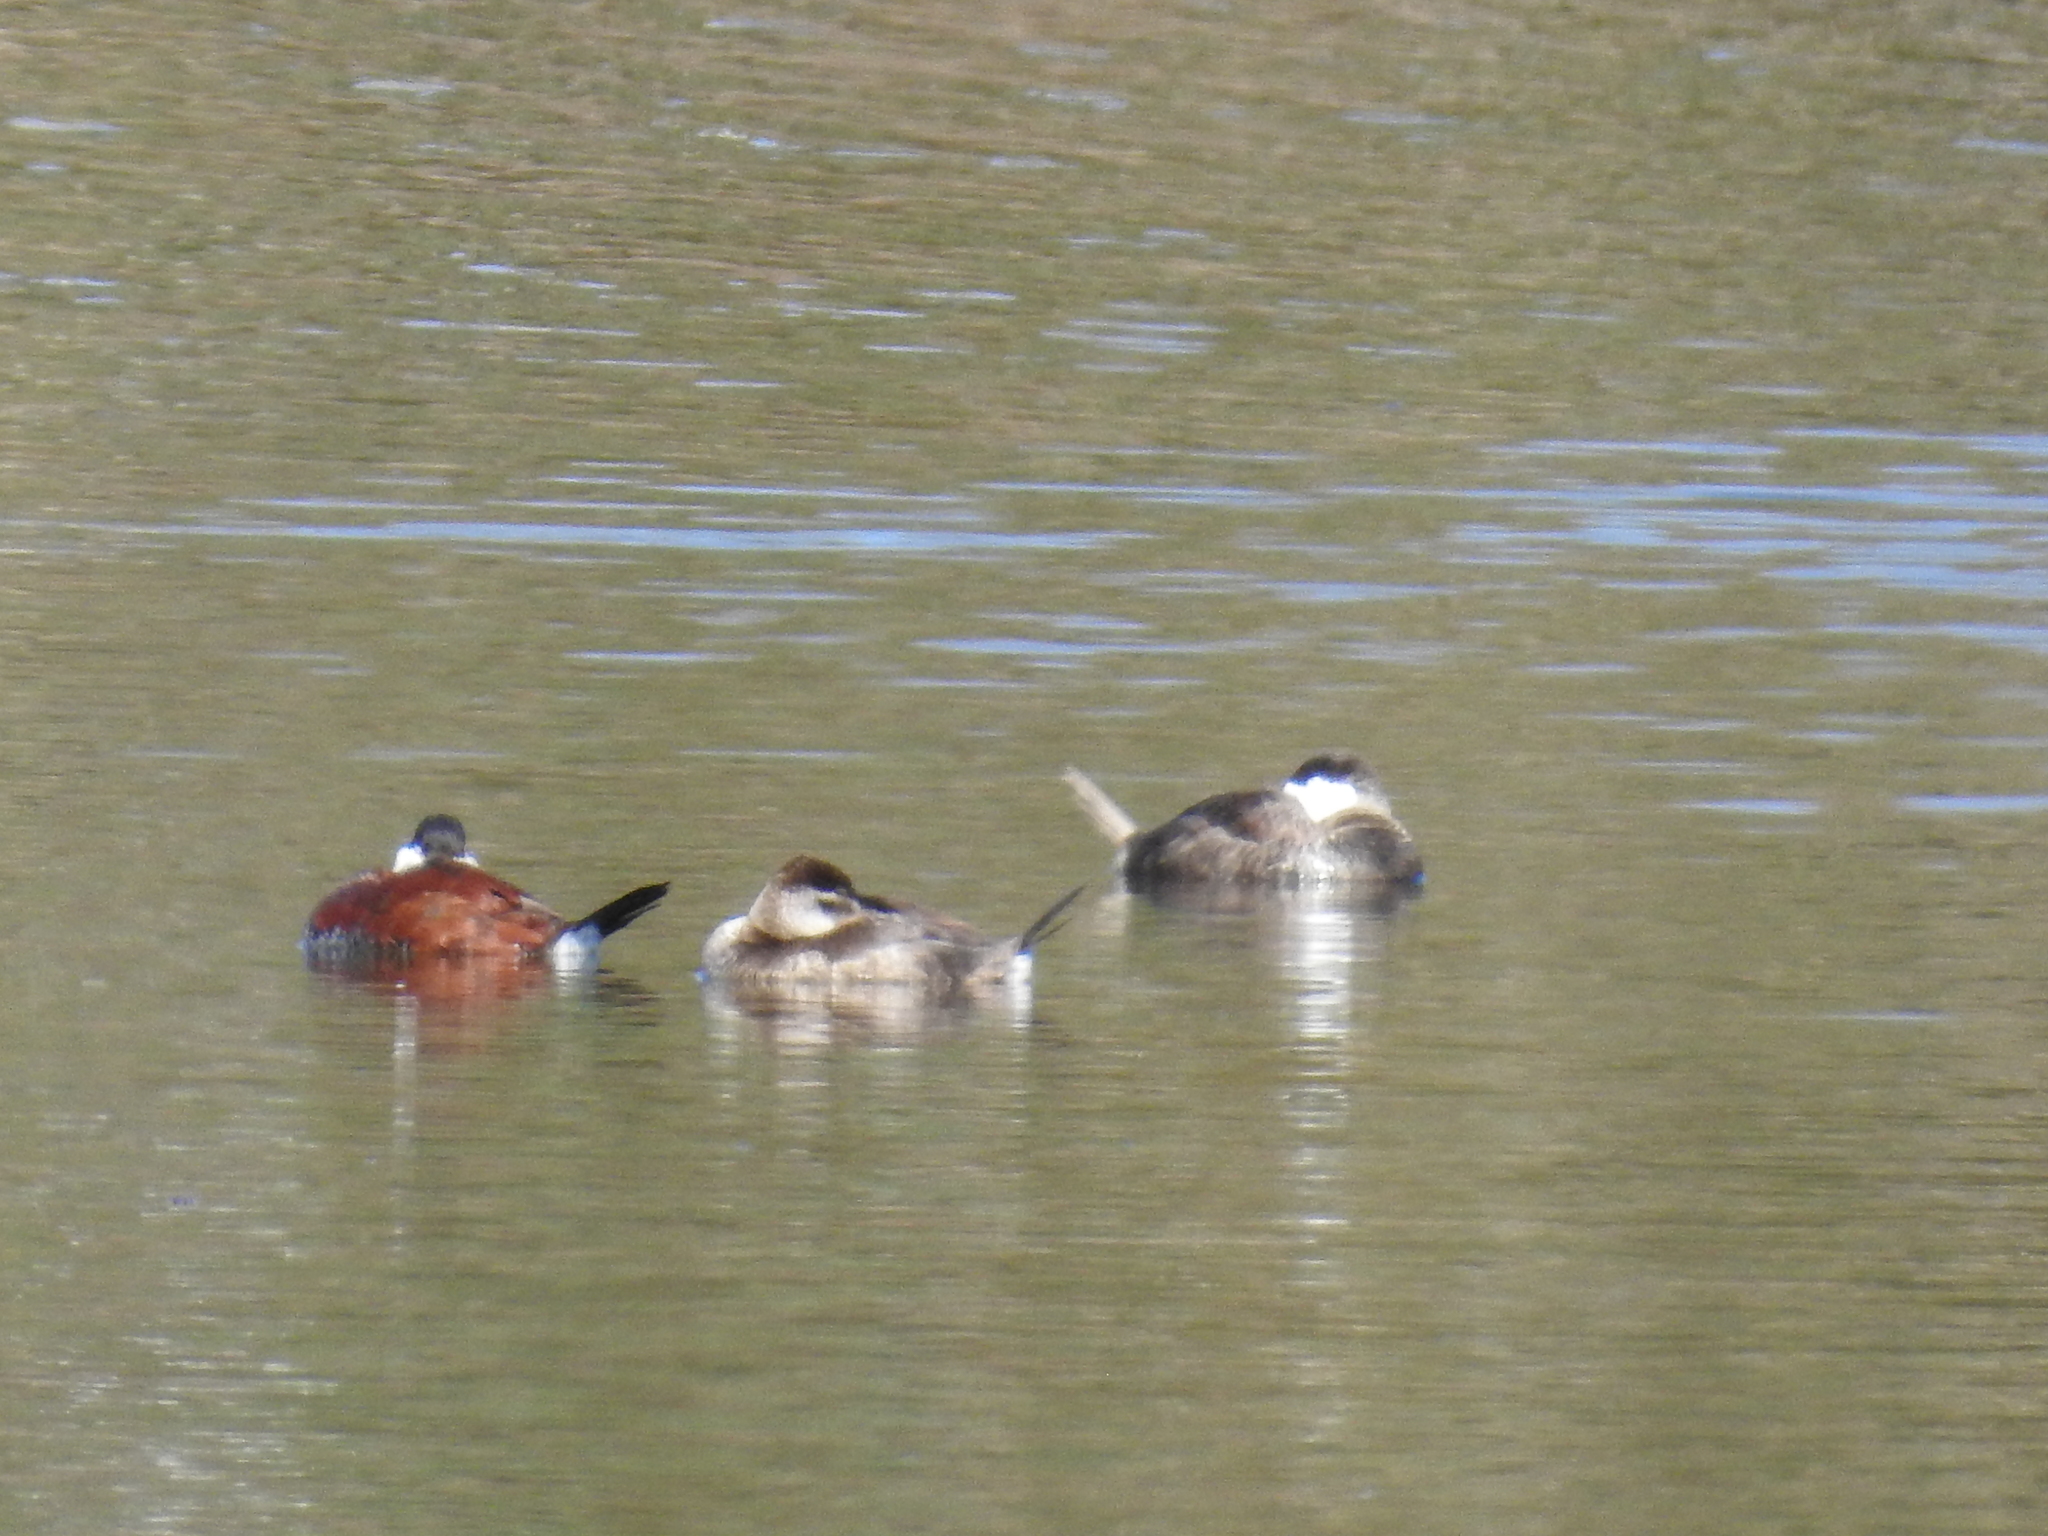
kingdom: Animalia
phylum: Chordata
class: Aves
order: Anseriformes
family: Anatidae
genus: Oxyura
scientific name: Oxyura jamaicensis
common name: Ruddy duck
